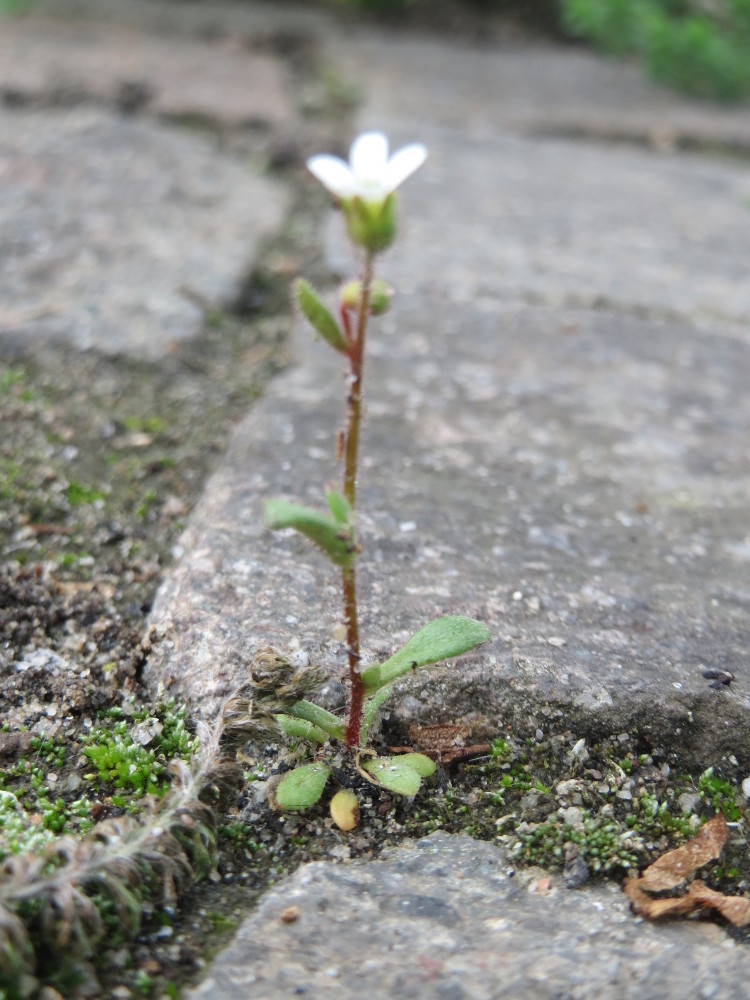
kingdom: Plantae
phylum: Tracheophyta
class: Magnoliopsida
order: Saxifragales
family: Saxifragaceae
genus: Saxifraga
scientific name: Saxifraga tridactylites
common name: Rue-leaved saxifrage
